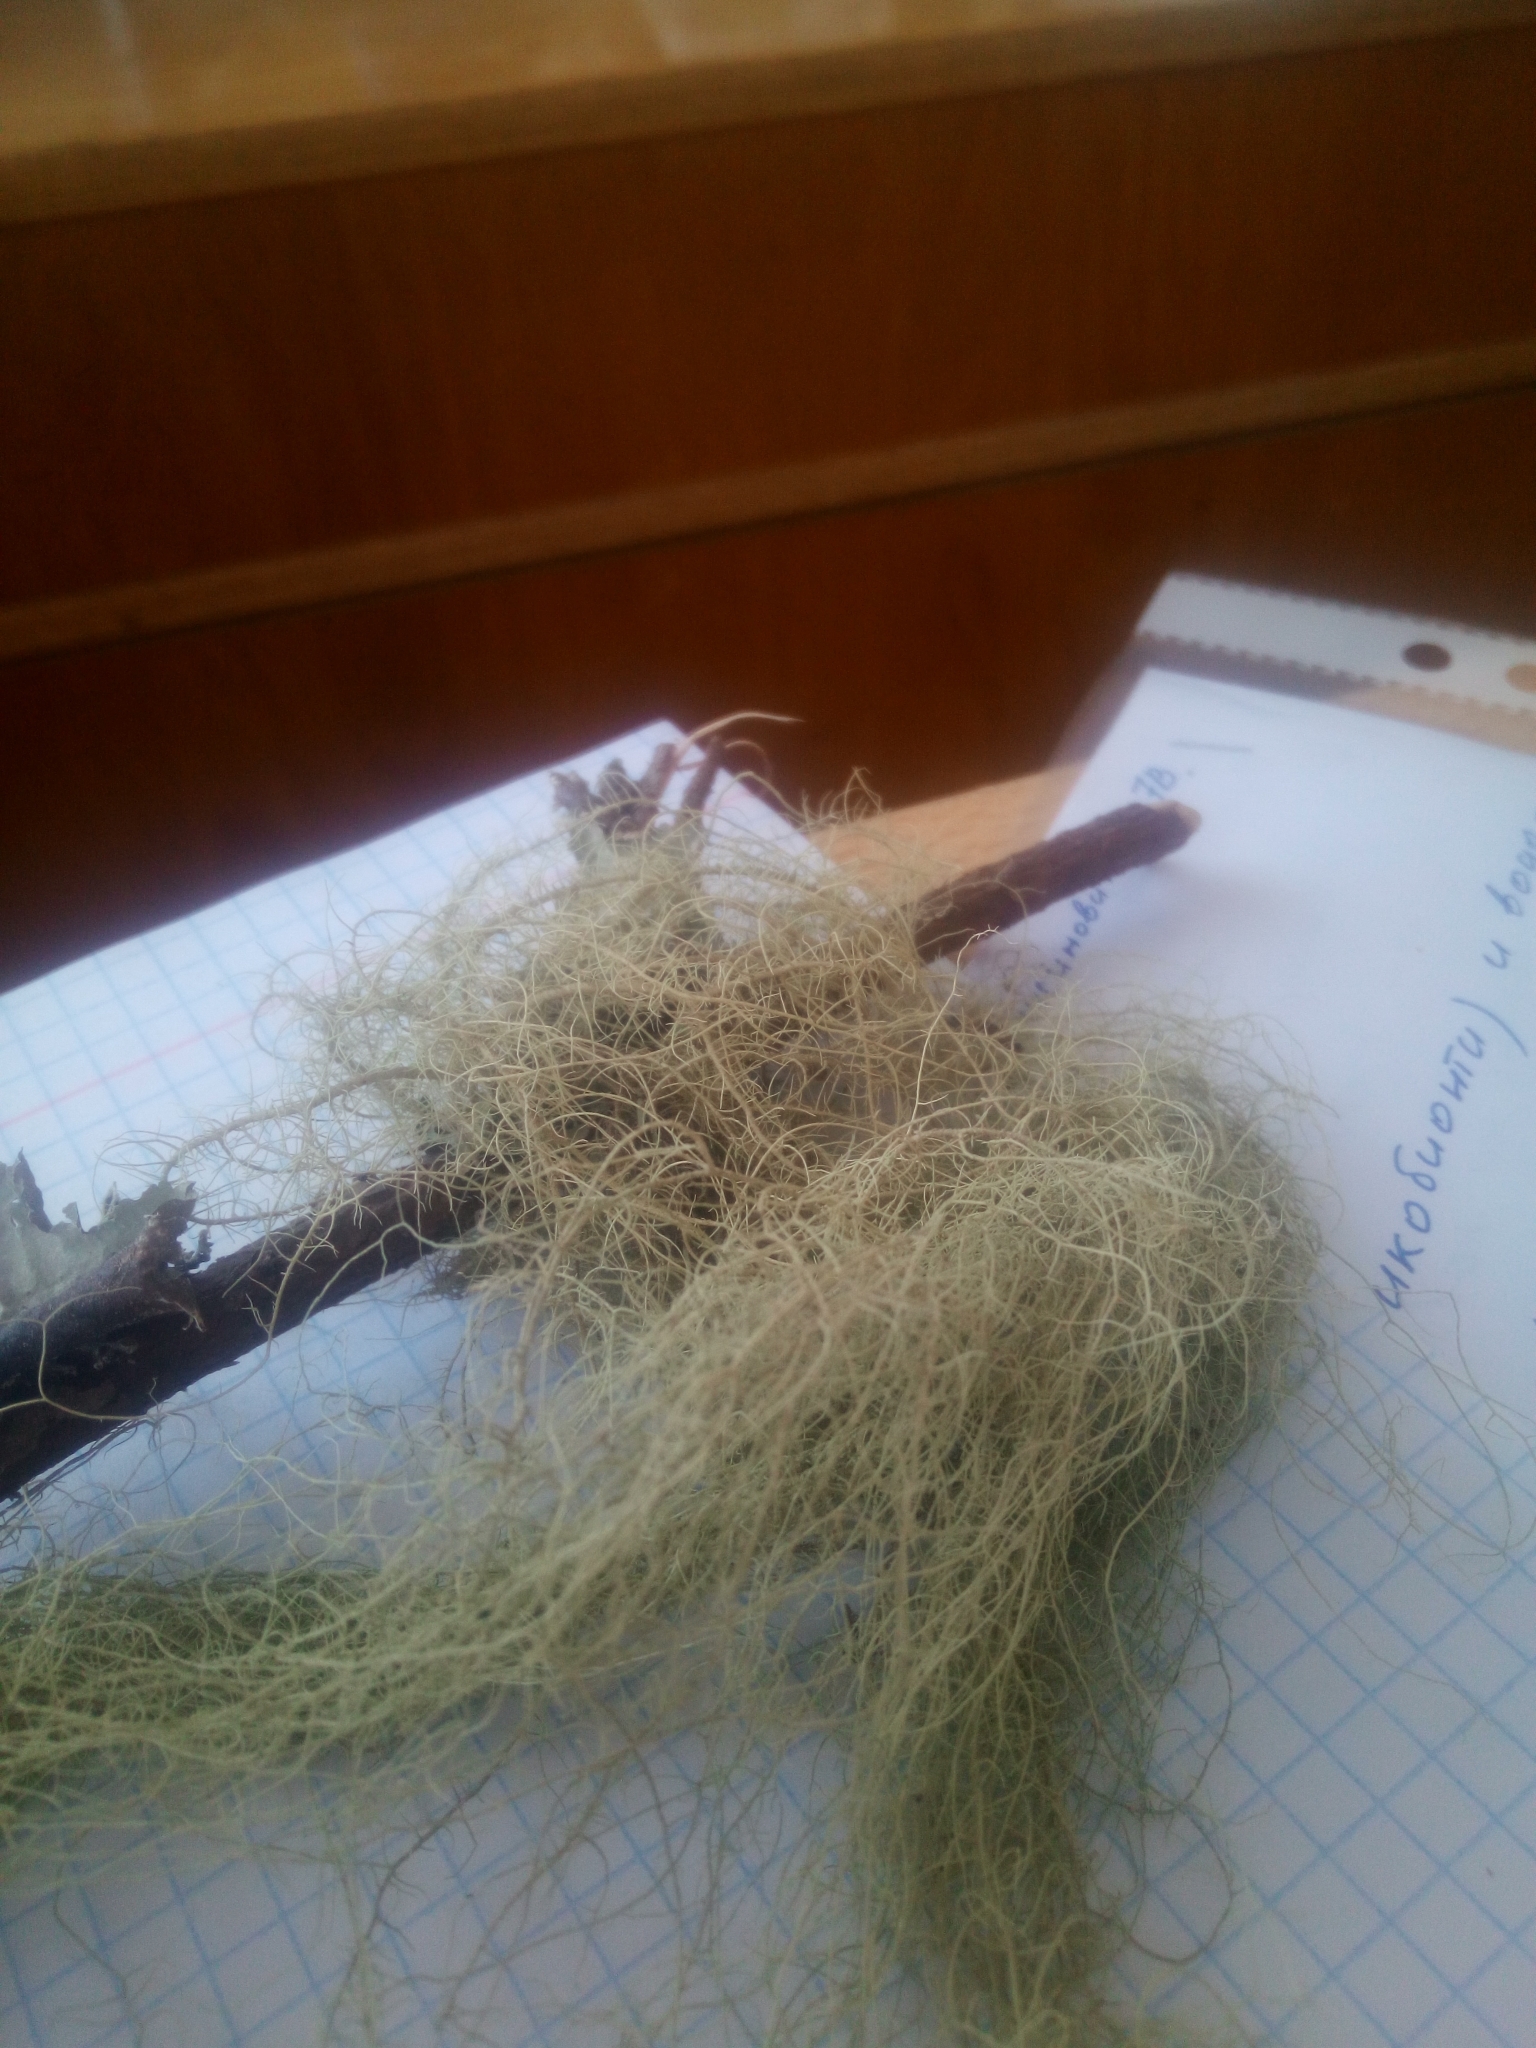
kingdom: Fungi
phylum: Ascomycota
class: Lecanoromycetes
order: Lecanorales
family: Parmeliaceae
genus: Usnea
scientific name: Usnea dasopoga
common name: Fishbone beard lichen
